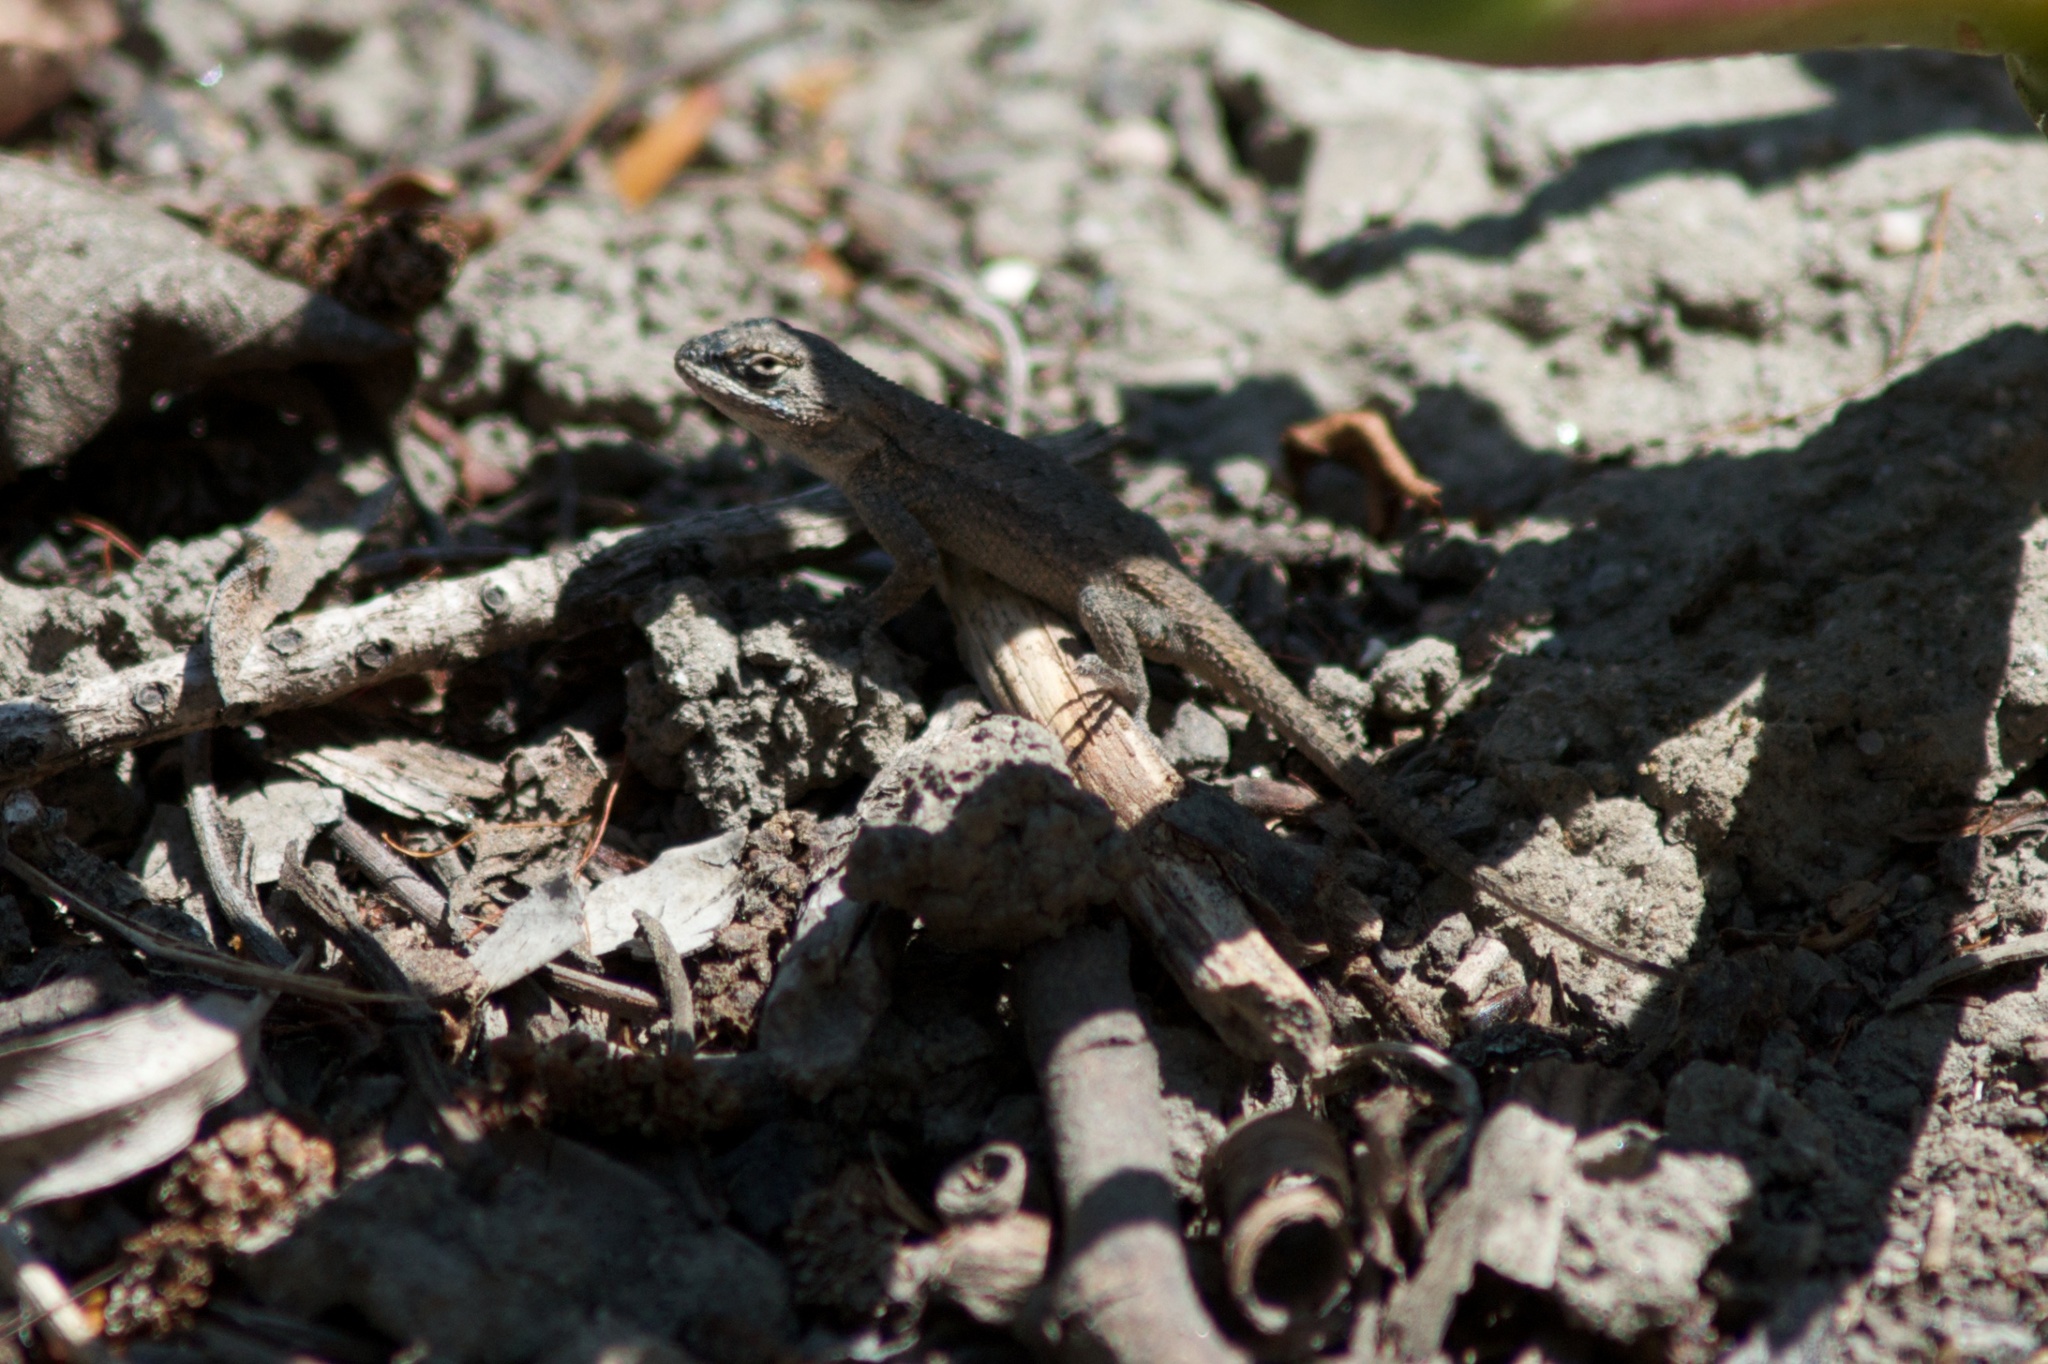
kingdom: Animalia
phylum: Chordata
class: Squamata
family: Phrynosomatidae
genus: Sceloporus
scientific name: Sceloporus occidentalis
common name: Western fence lizard
